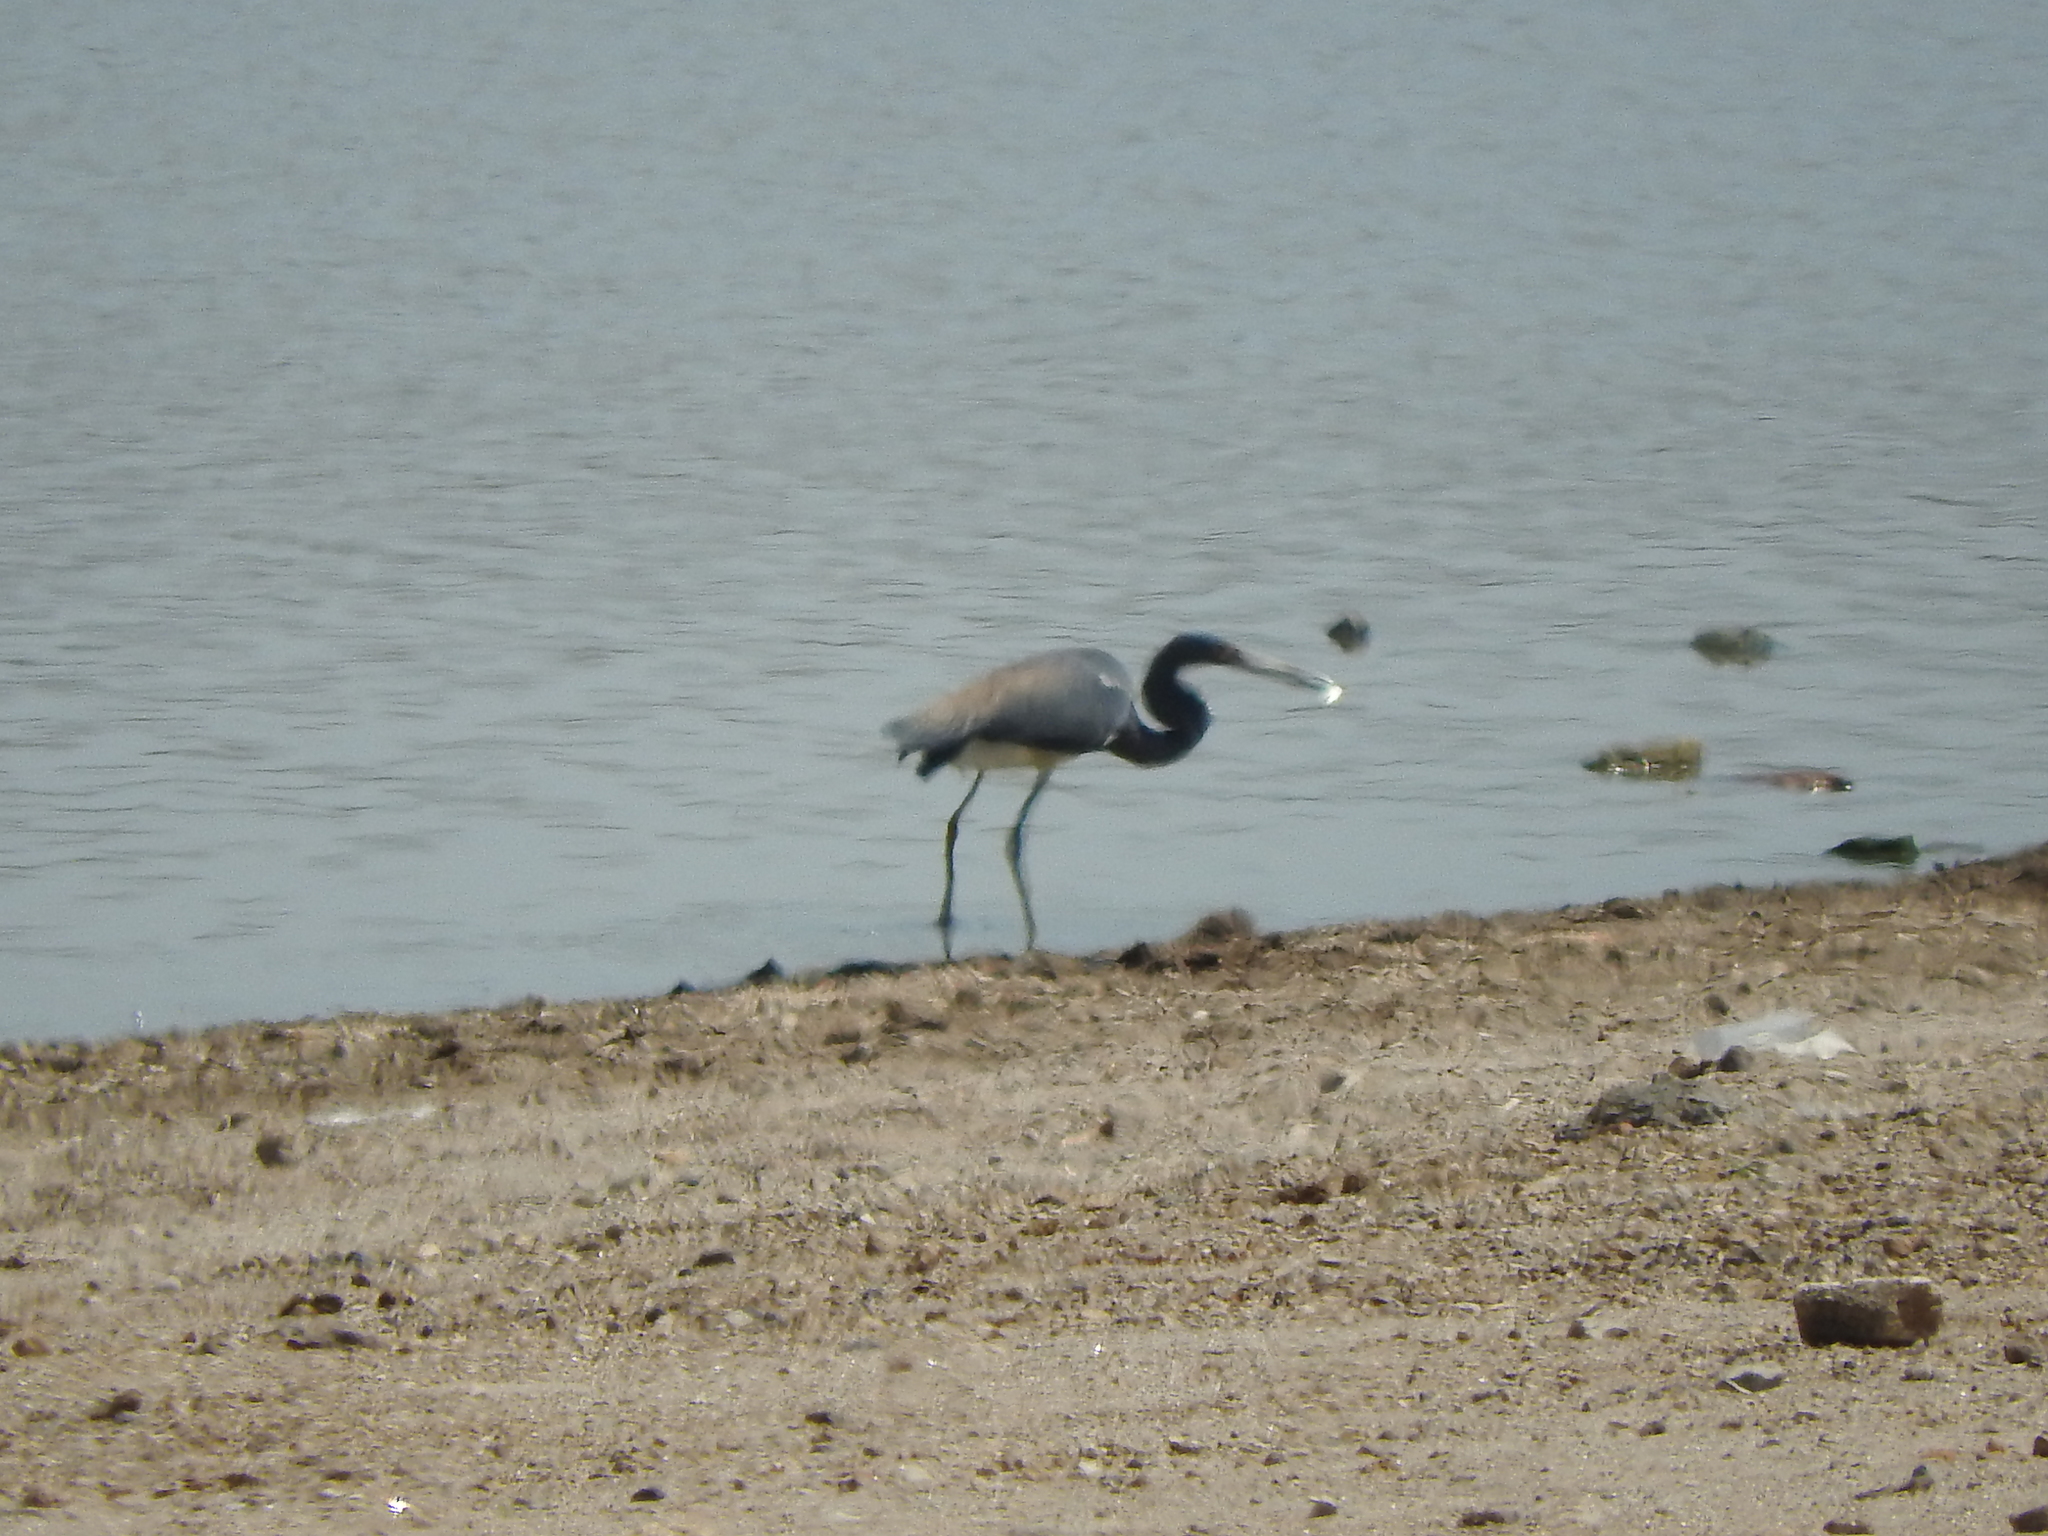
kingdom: Animalia
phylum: Chordata
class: Aves
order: Pelecaniformes
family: Ardeidae
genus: Egretta
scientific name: Egretta tricolor
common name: Tricolored heron
